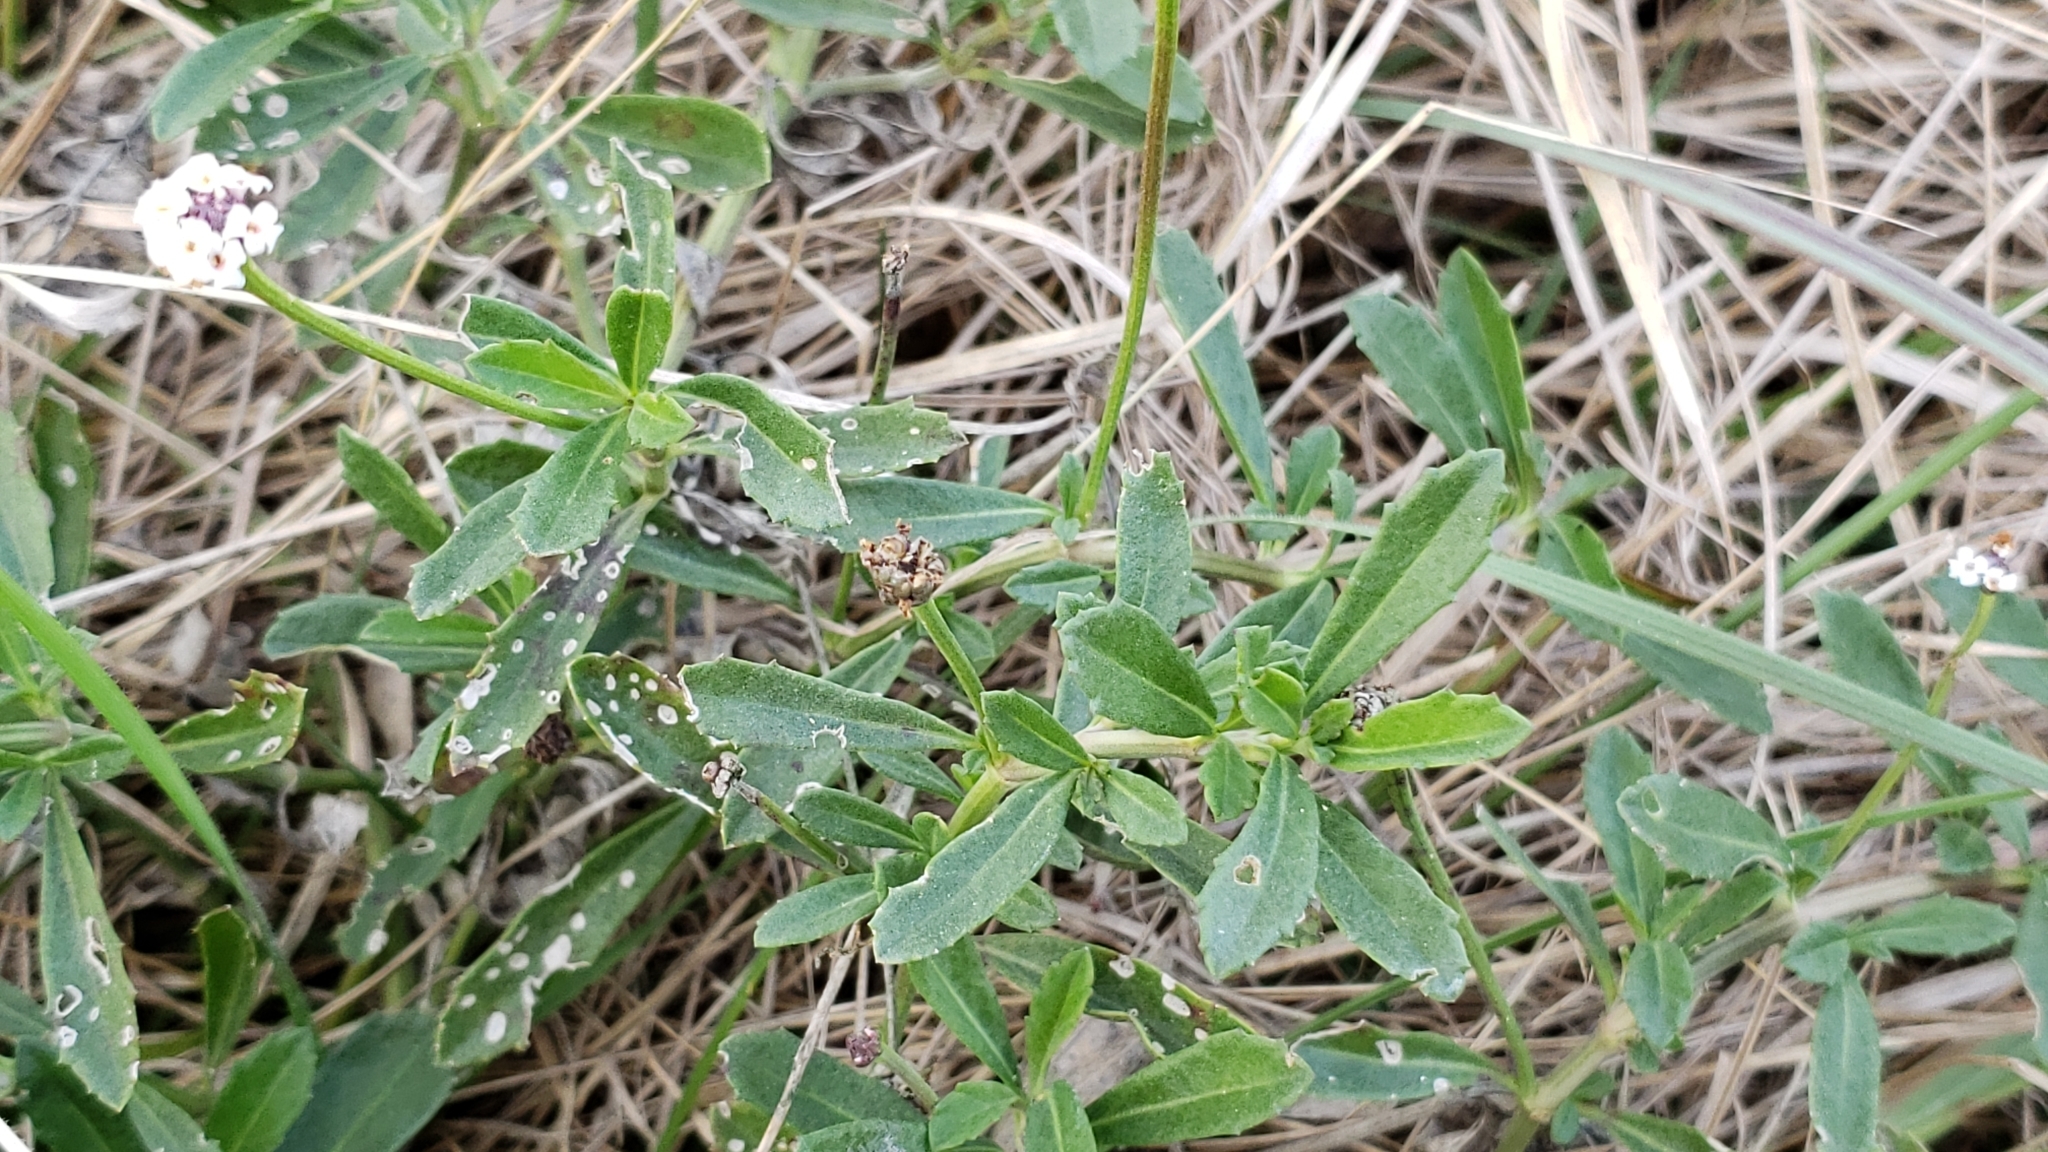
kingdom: Plantae
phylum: Tracheophyta
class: Magnoliopsida
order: Lamiales
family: Verbenaceae
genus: Phyla
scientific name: Phyla nodiflora
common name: Frogfruit
